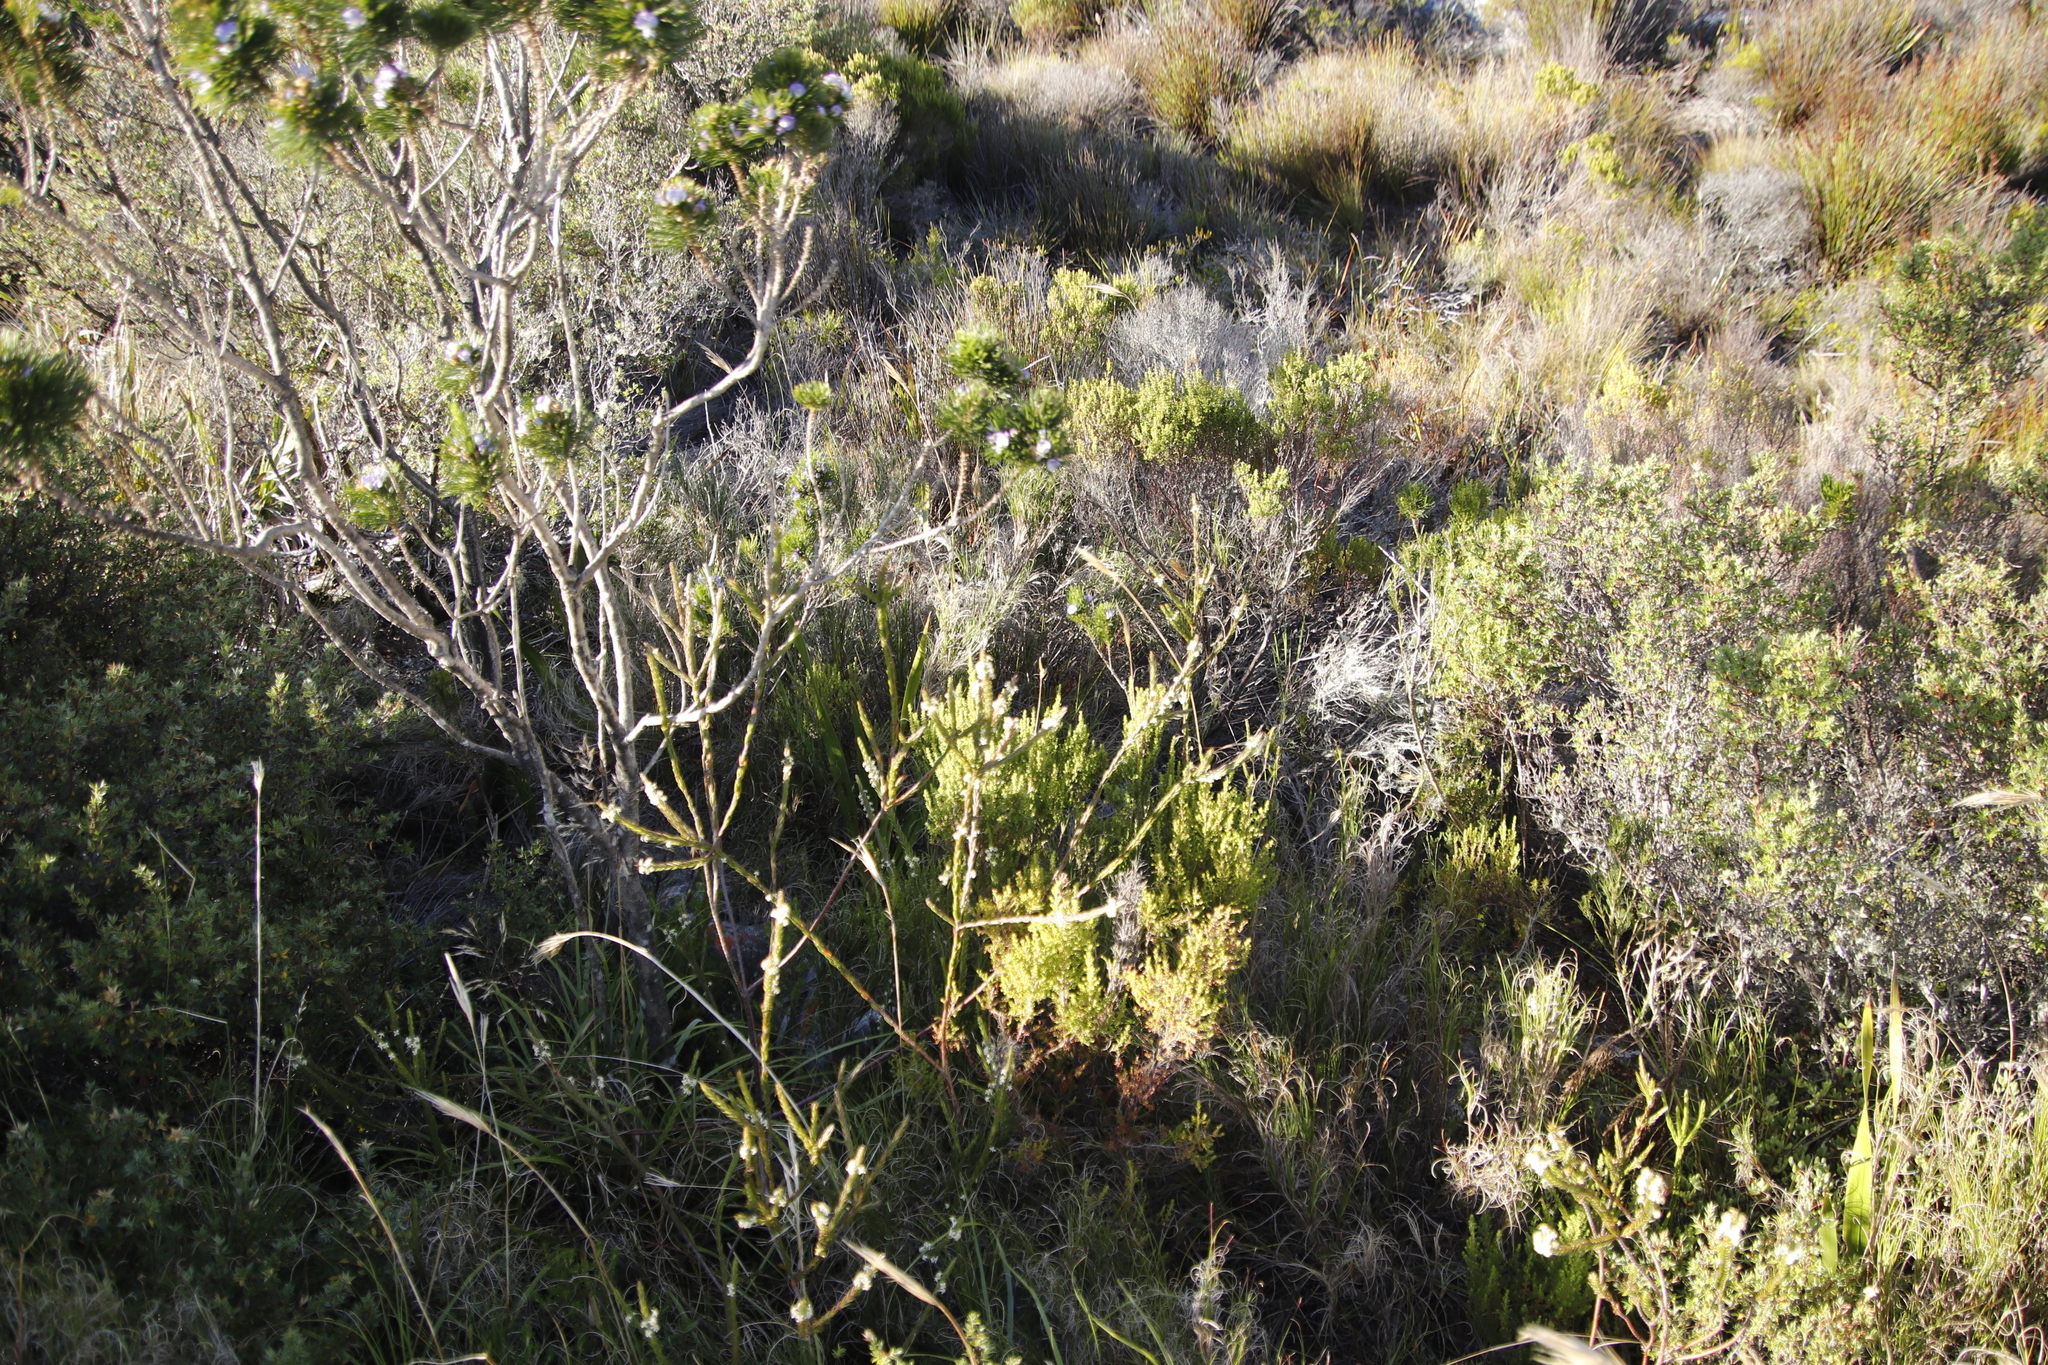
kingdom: Plantae
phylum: Tracheophyta
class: Magnoliopsida
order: Fabales
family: Fabaceae
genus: Psoralea
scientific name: Psoralea pinnata
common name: African scurfpea
